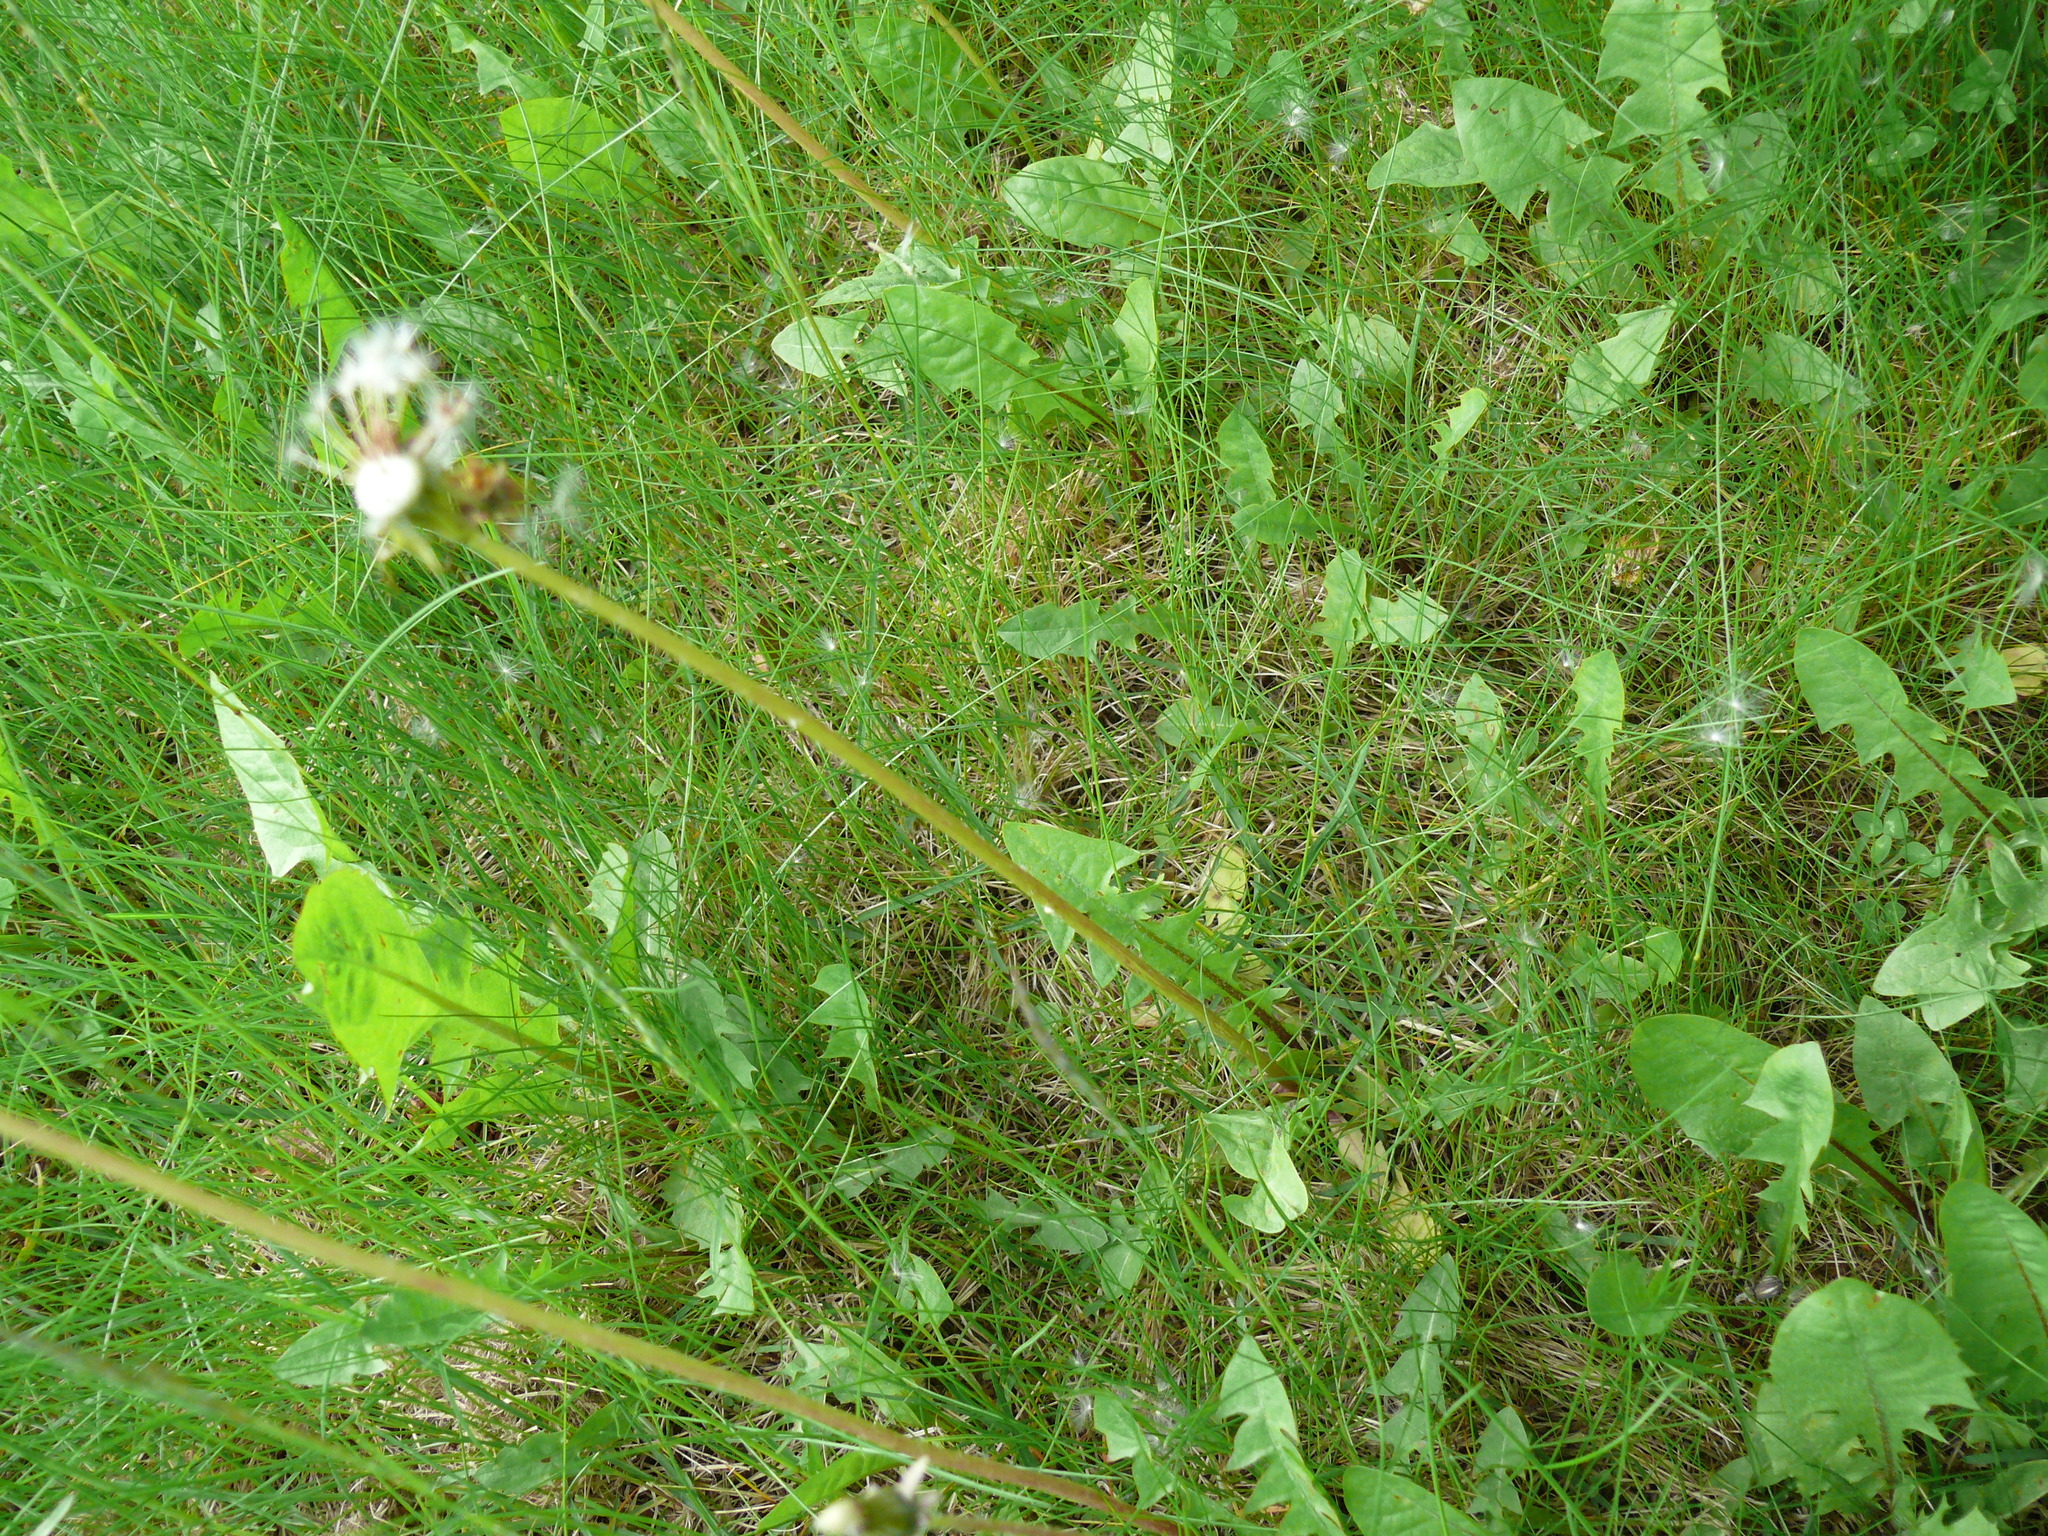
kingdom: Plantae
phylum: Tracheophyta
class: Magnoliopsida
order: Asterales
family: Asteraceae
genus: Taraxacum
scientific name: Taraxacum officinale
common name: Common dandelion
